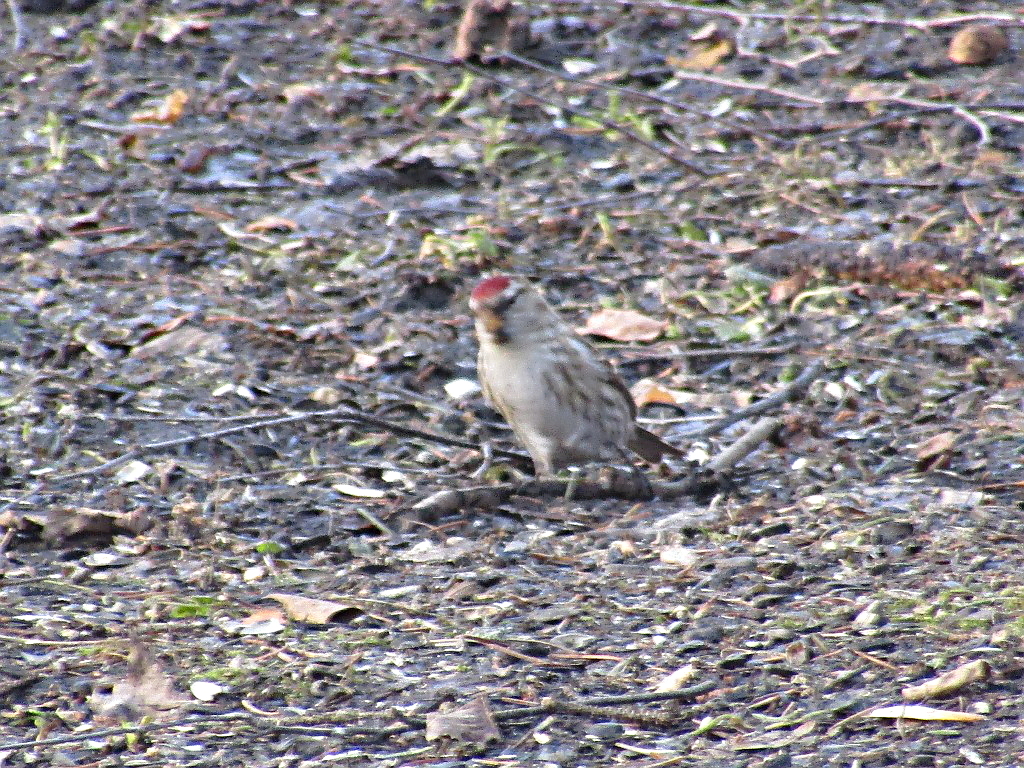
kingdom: Animalia
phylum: Chordata
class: Aves
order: Passeriformes
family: Fringillidae
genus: Acanthis
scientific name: Acanthis flammea
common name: Common redpoll
